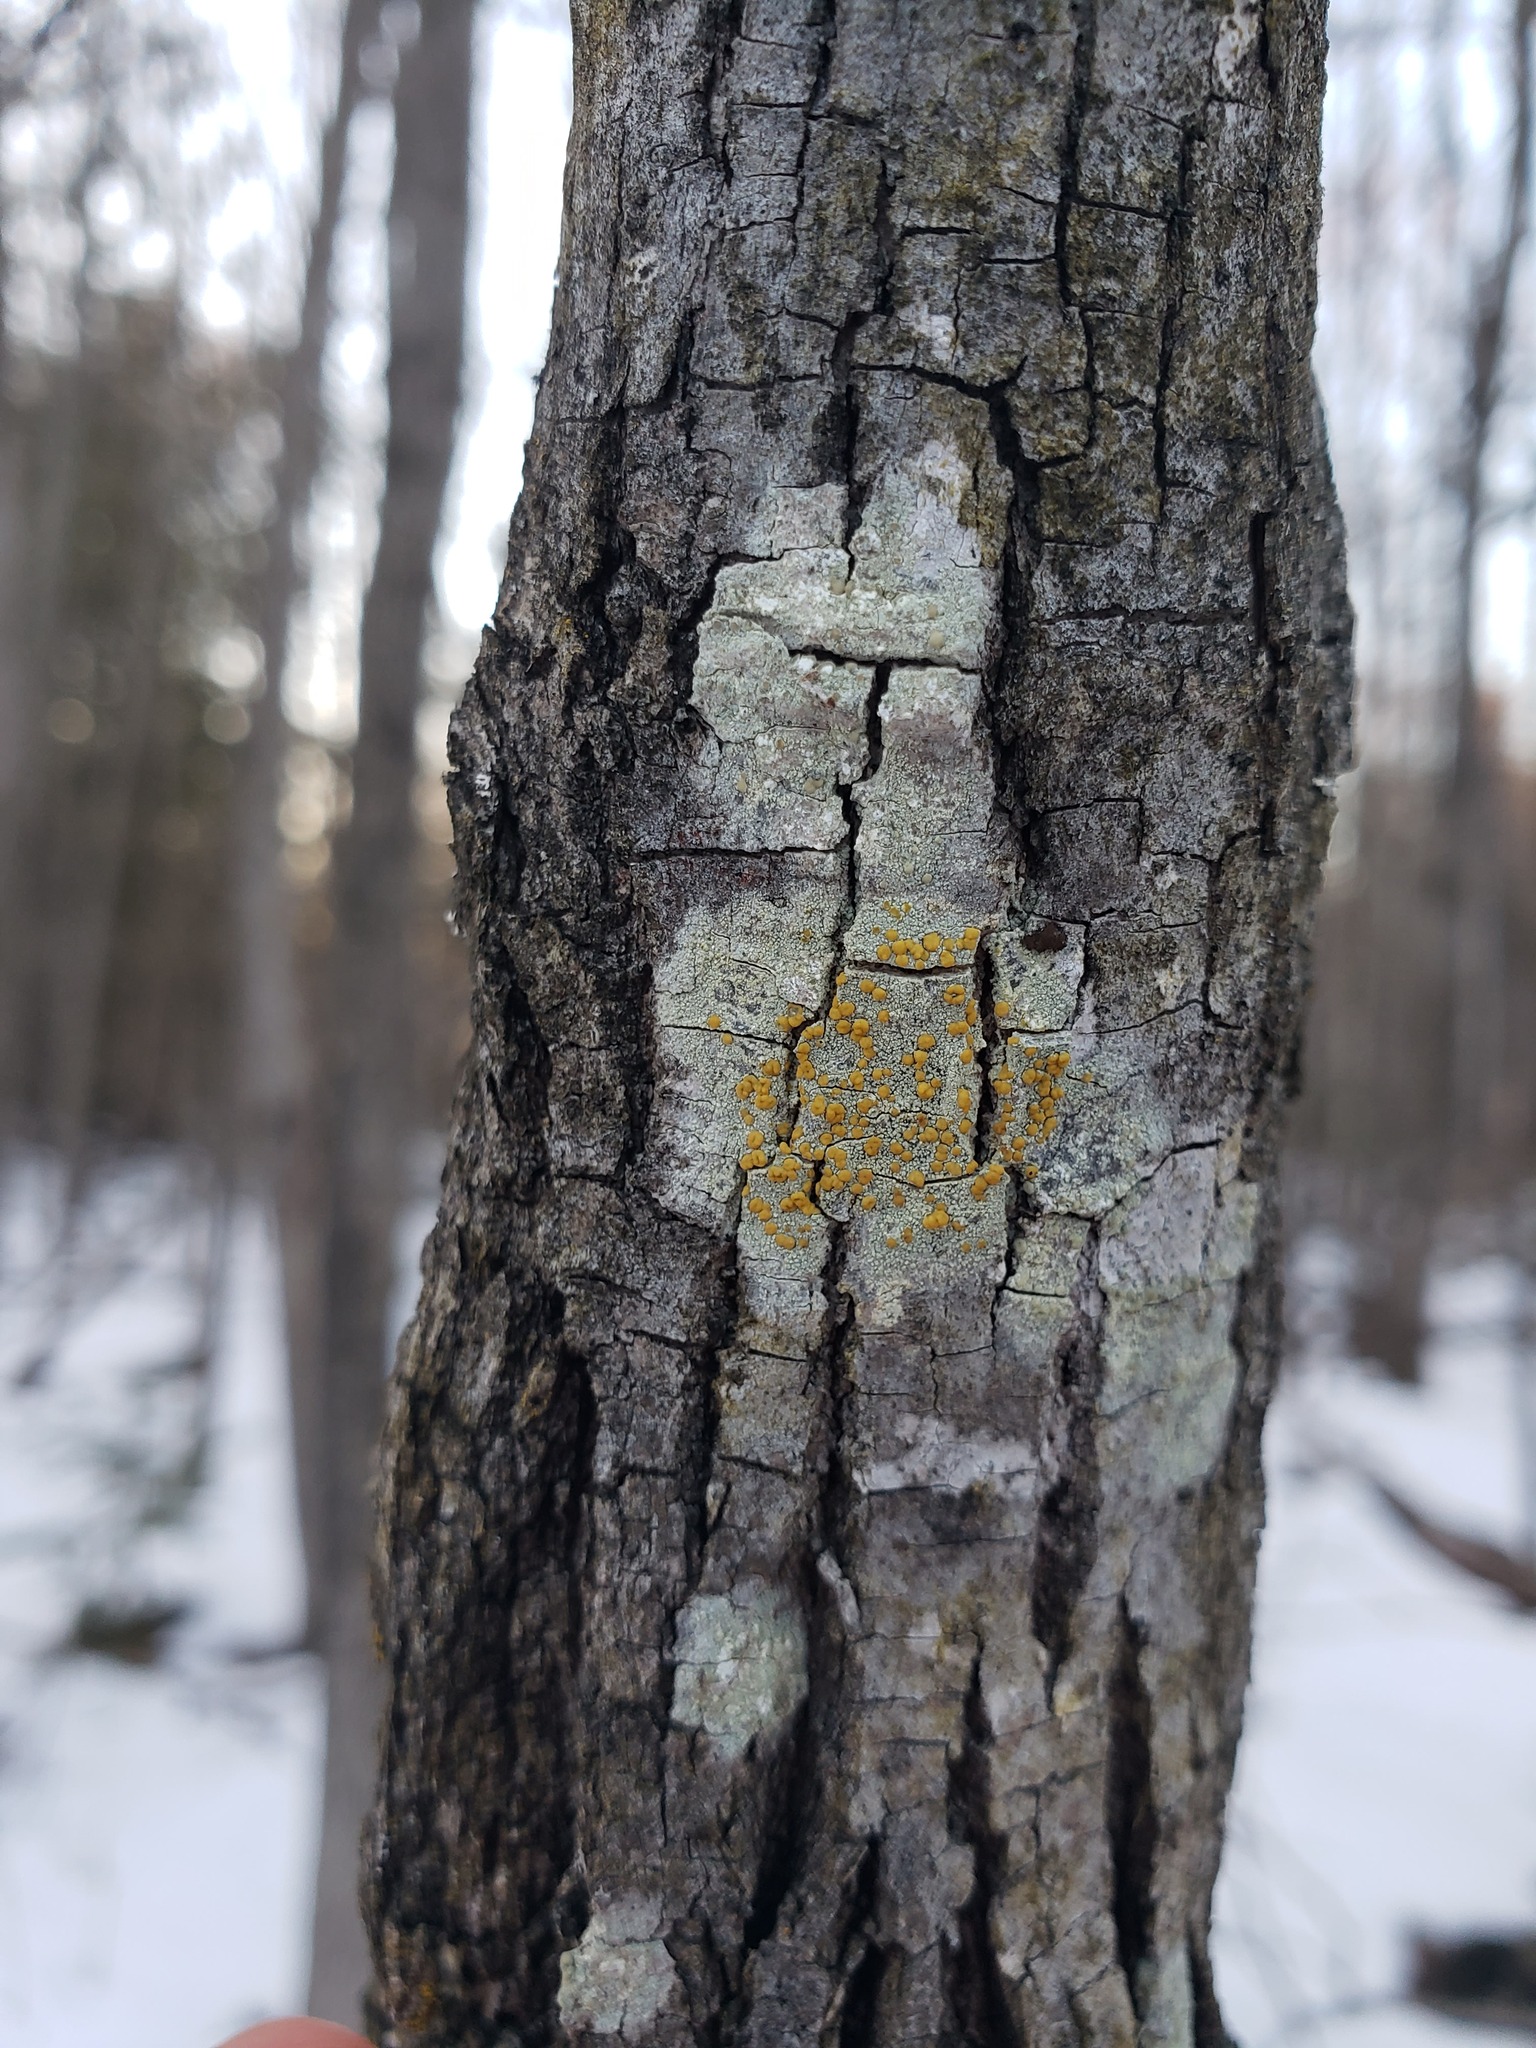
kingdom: Fungi
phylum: Ascomycota
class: Lecanoromycetes
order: Lecanorales
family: Lecanoraceae
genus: Lecanora
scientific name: Lecanora symmicta
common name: Fused rim lichen
